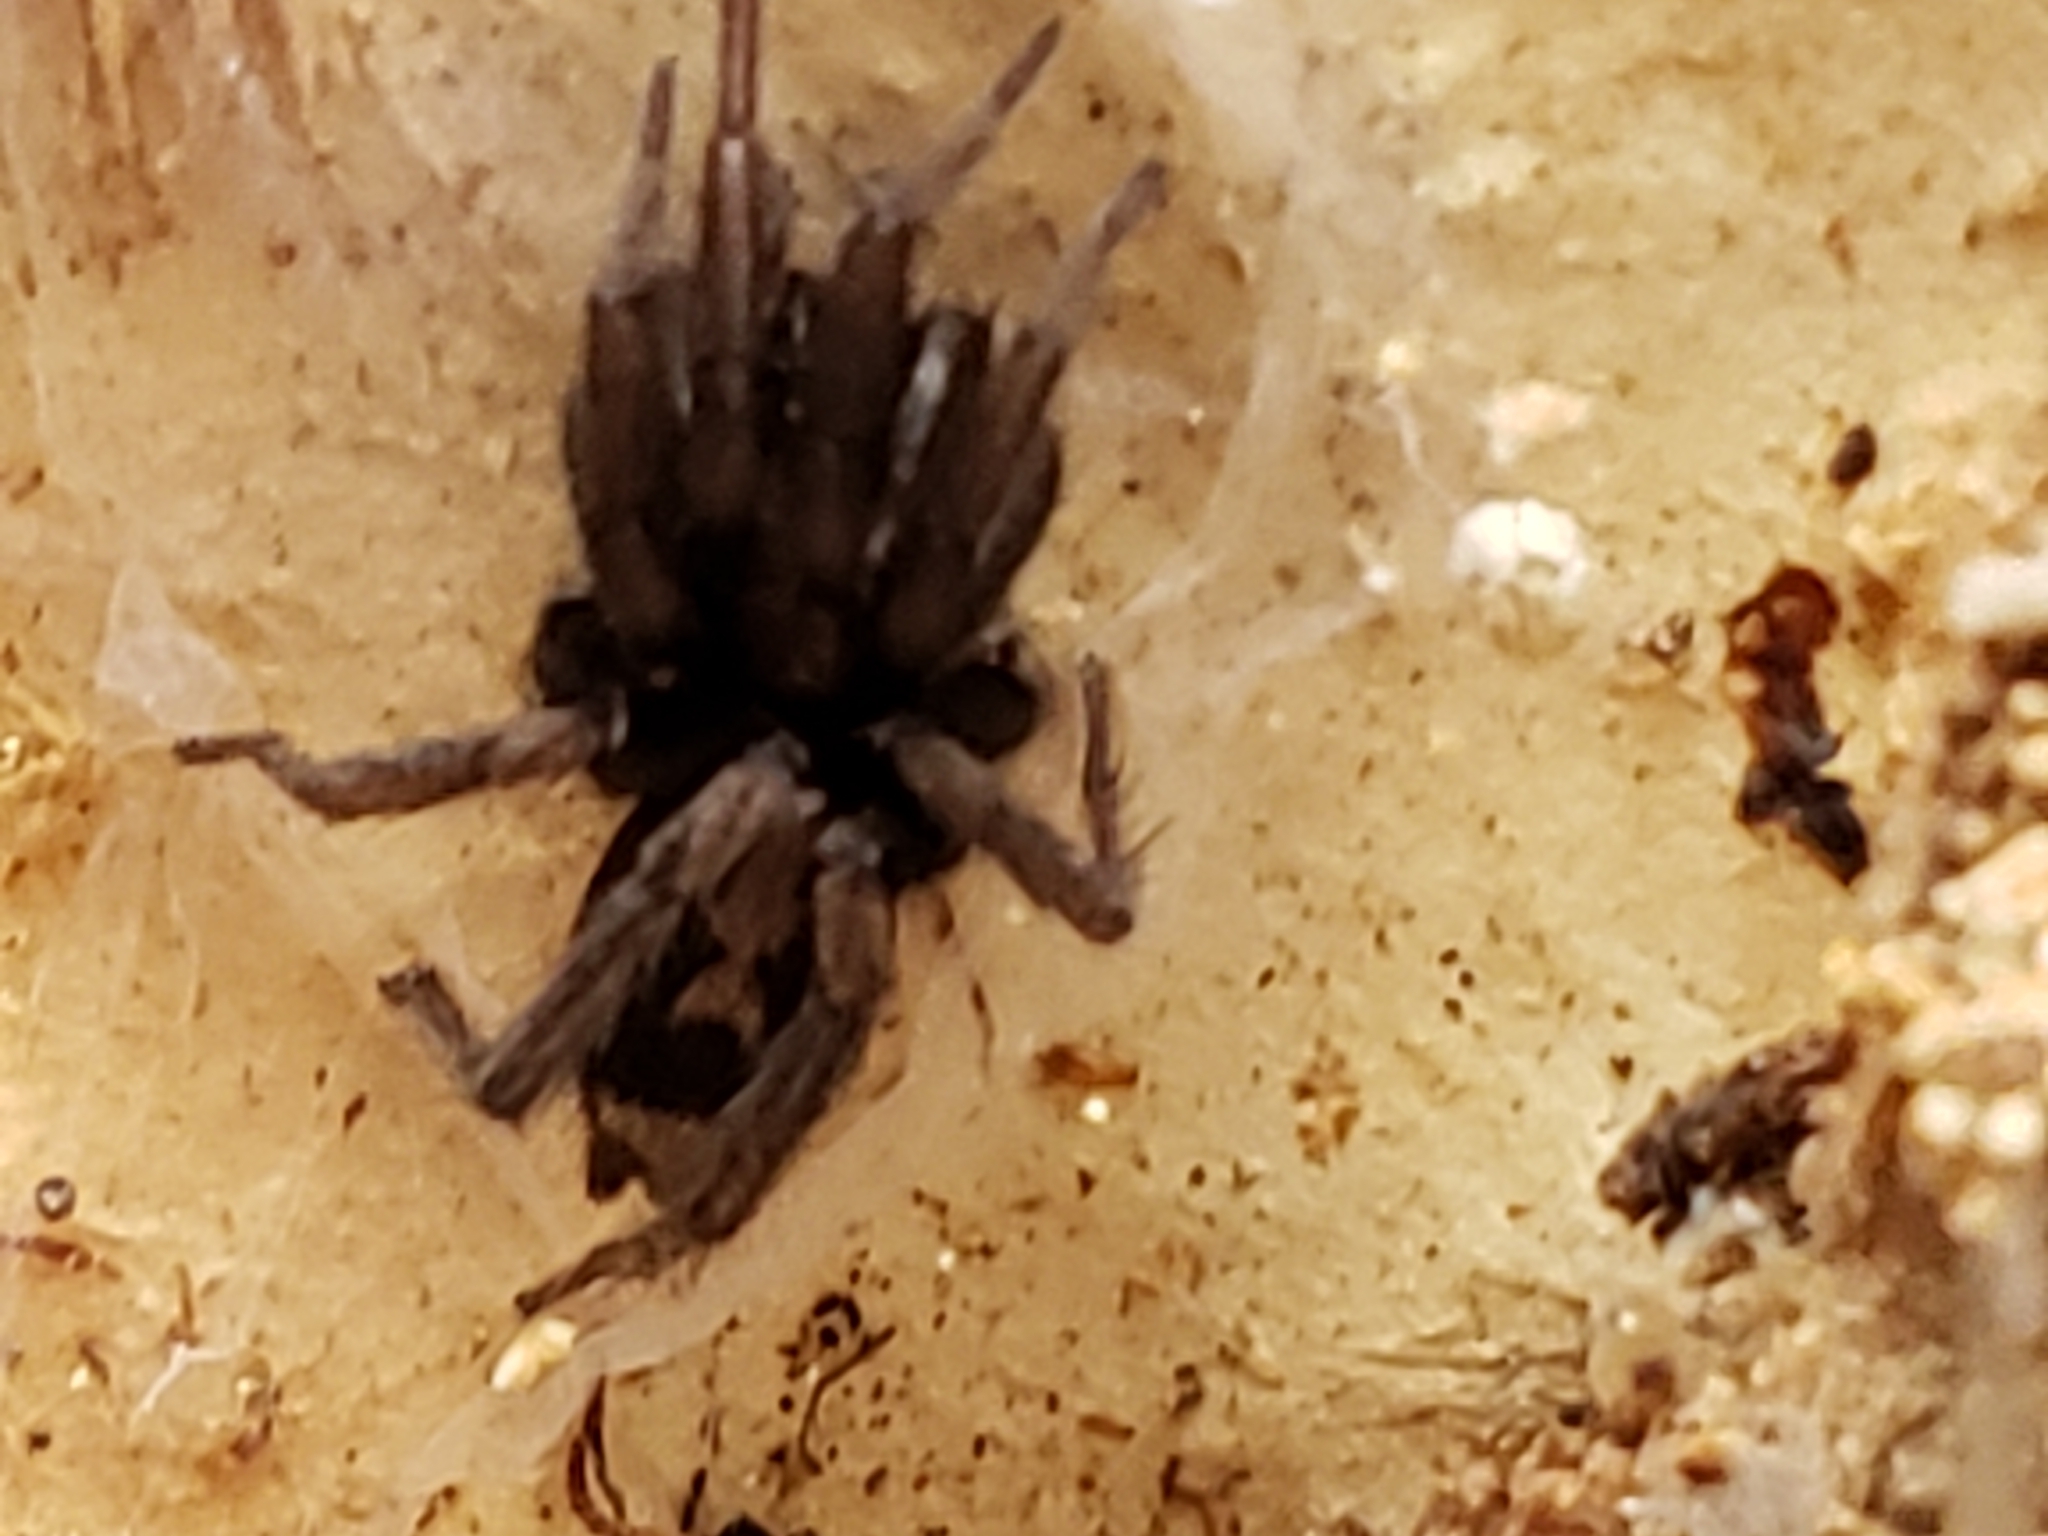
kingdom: Animalia
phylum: Arthropoda
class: Arachnida
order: Araneae
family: Gnaphosidae
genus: Herpyllus
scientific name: Herpyllus ecclesiasticus
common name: Eastern parson spider
